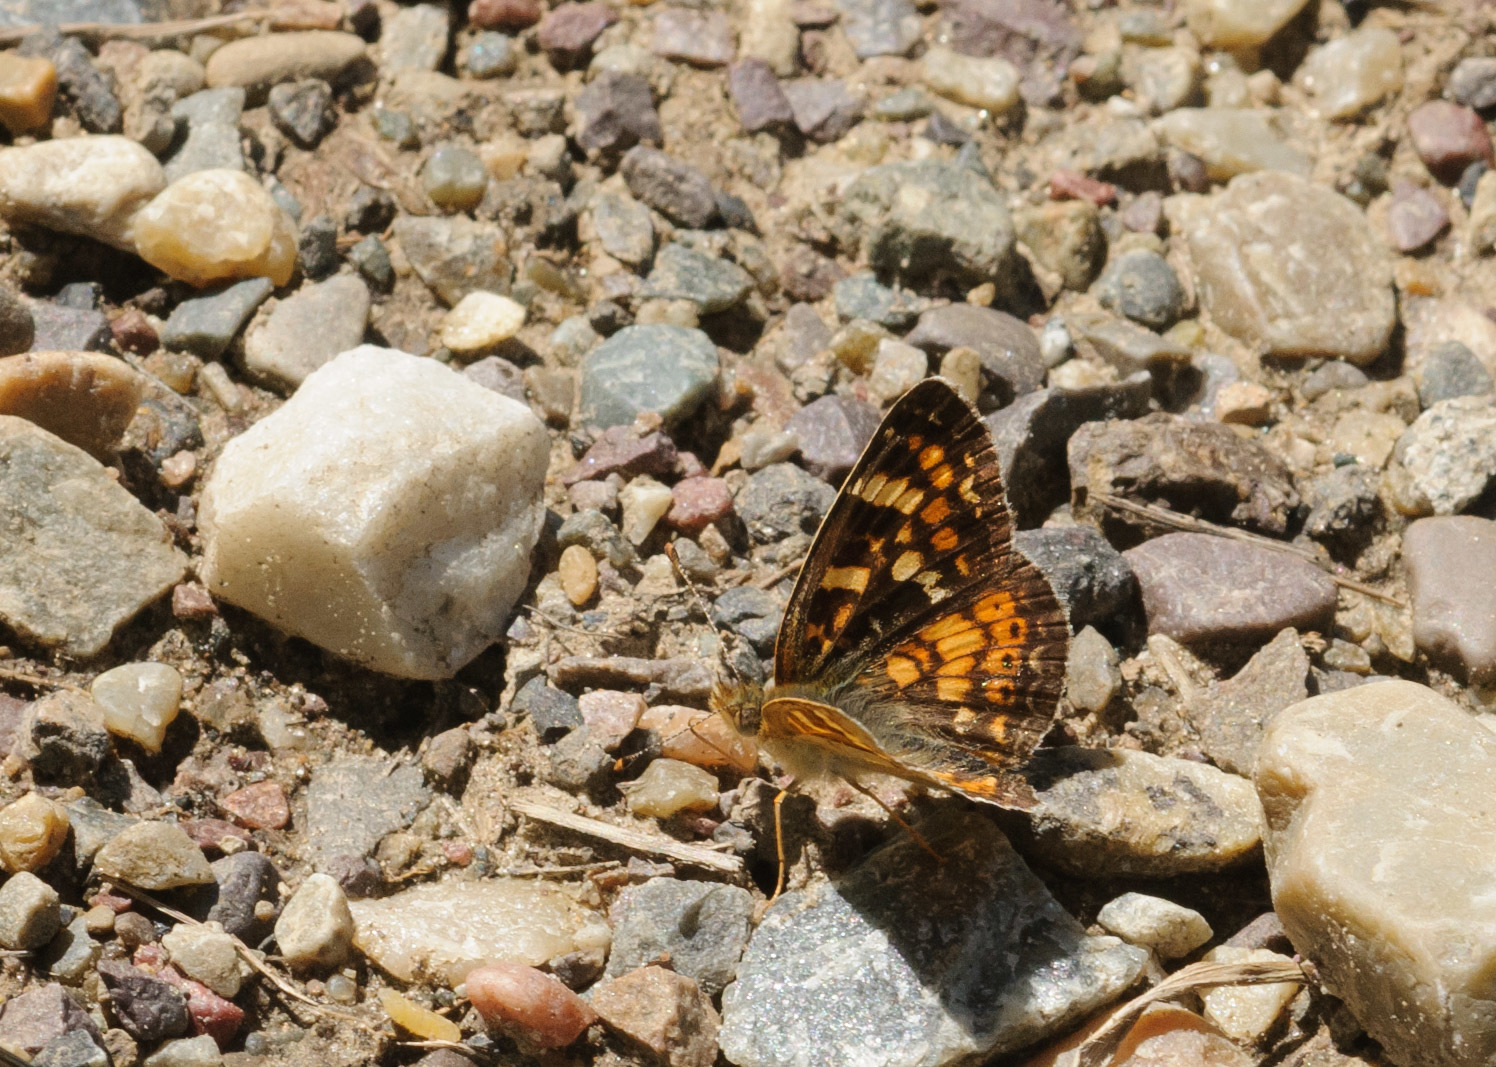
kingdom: Animalia
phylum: Arthropoda
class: Insecta
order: Lepidoptera
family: Nymphalidae
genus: Phyciodes
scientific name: Phyciodes tharos
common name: Pearl crescent
